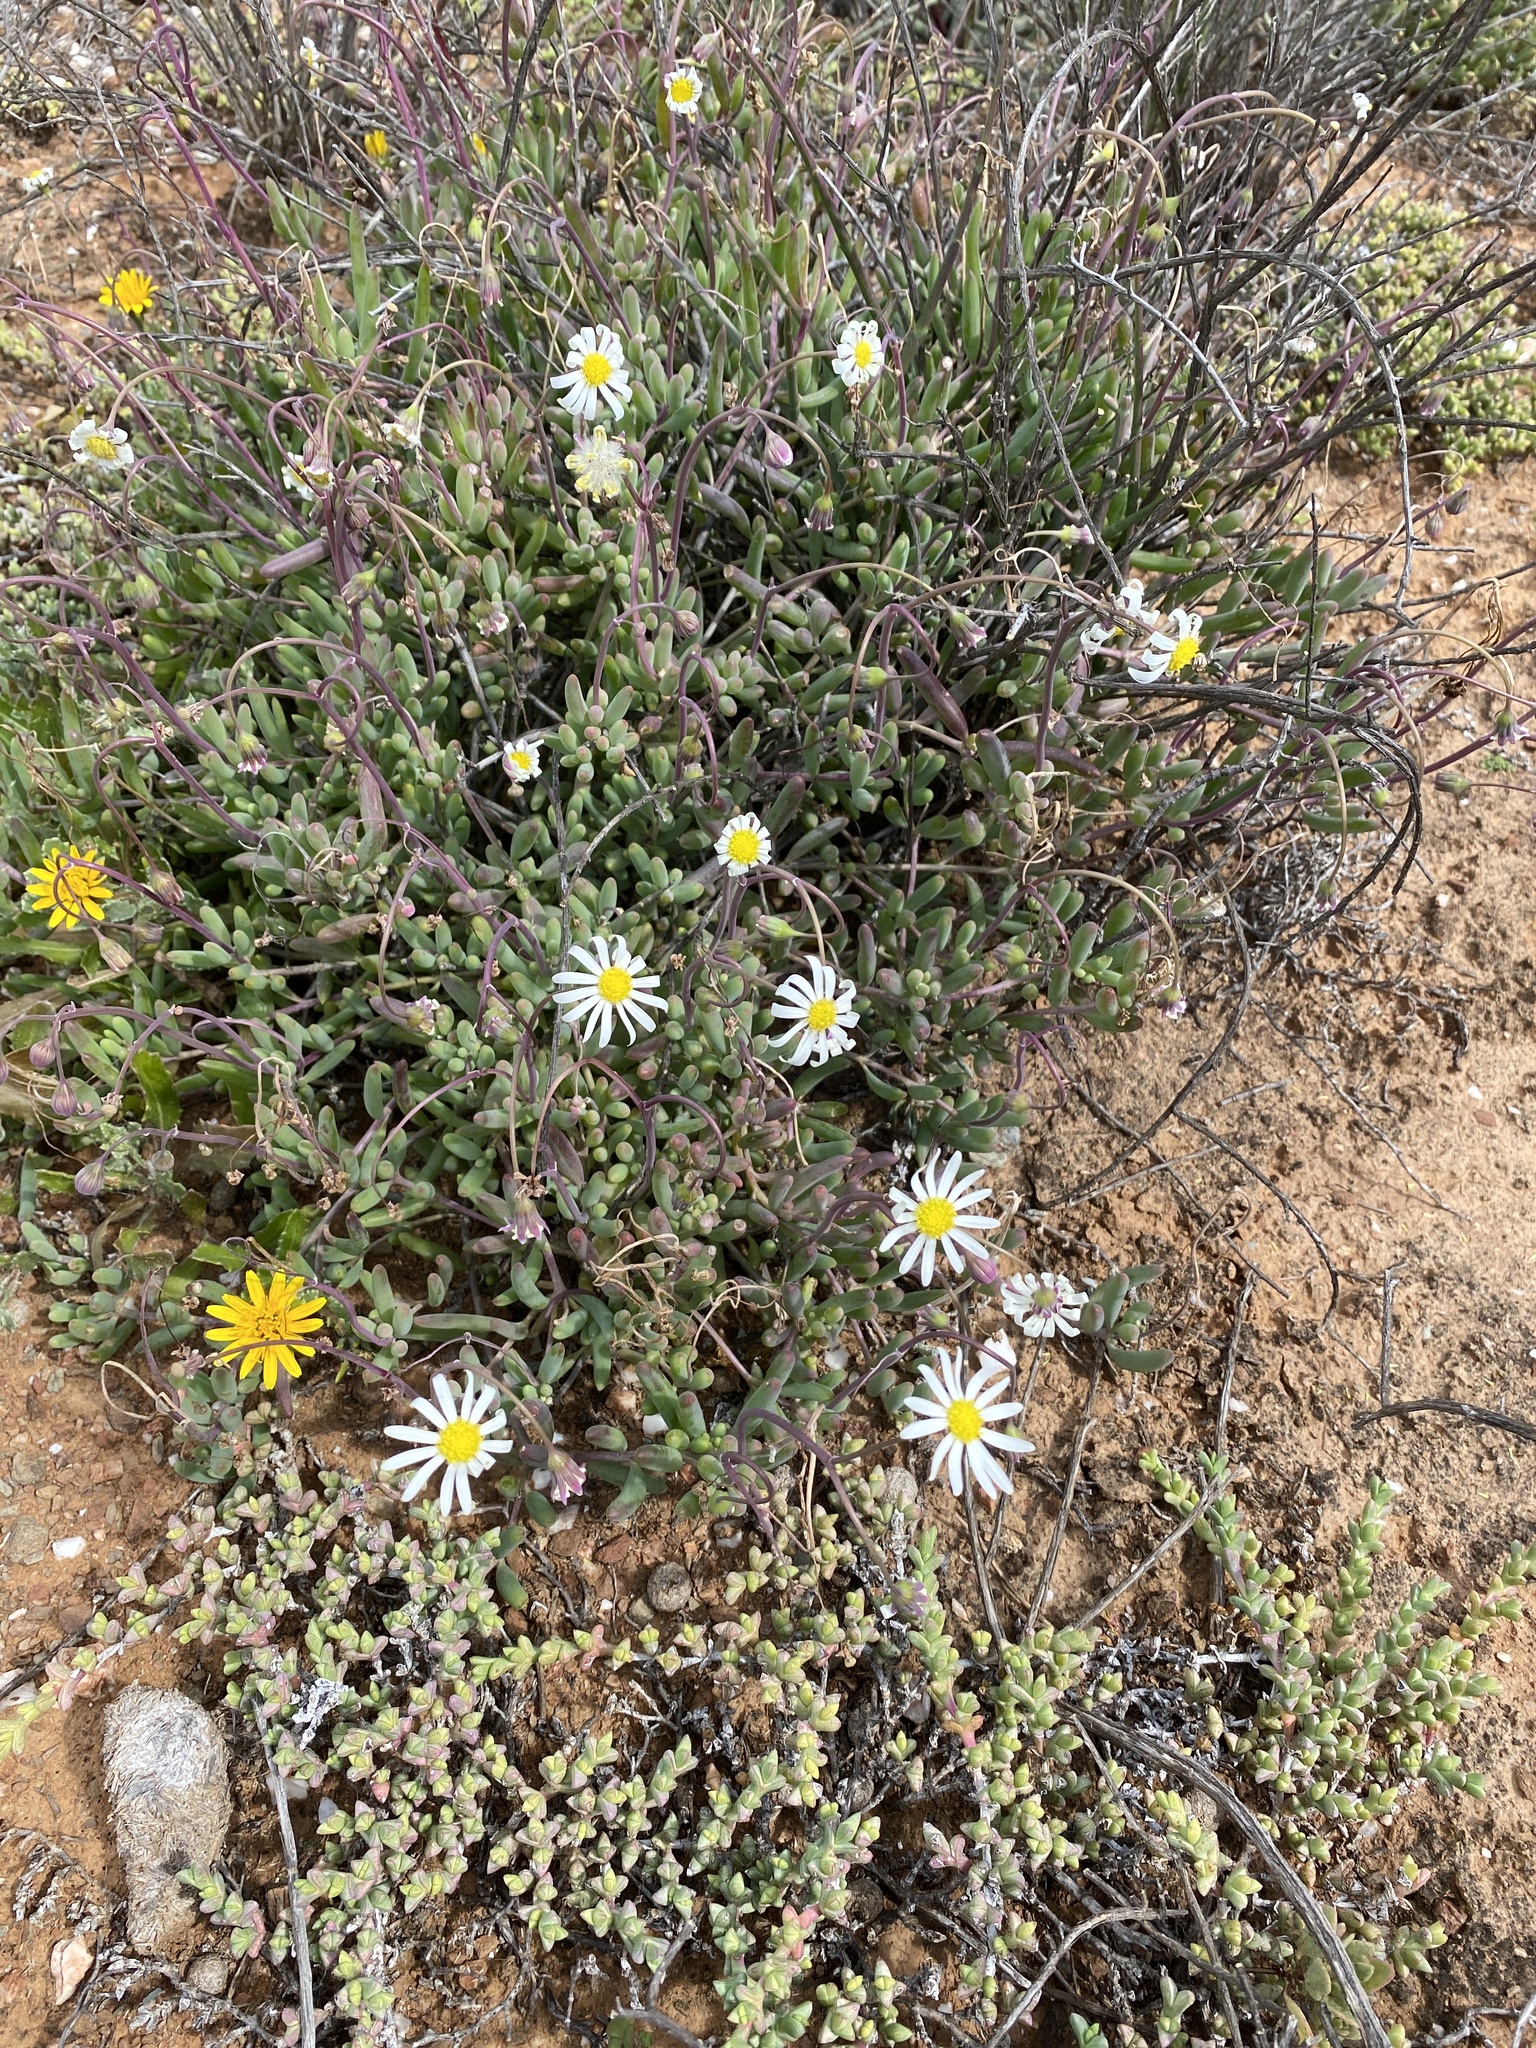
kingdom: Plantae
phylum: Tracheophyta
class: Magnoliopsida
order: Asterales
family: Asteraceae
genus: Crassothonna
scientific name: Crassothonna alba
